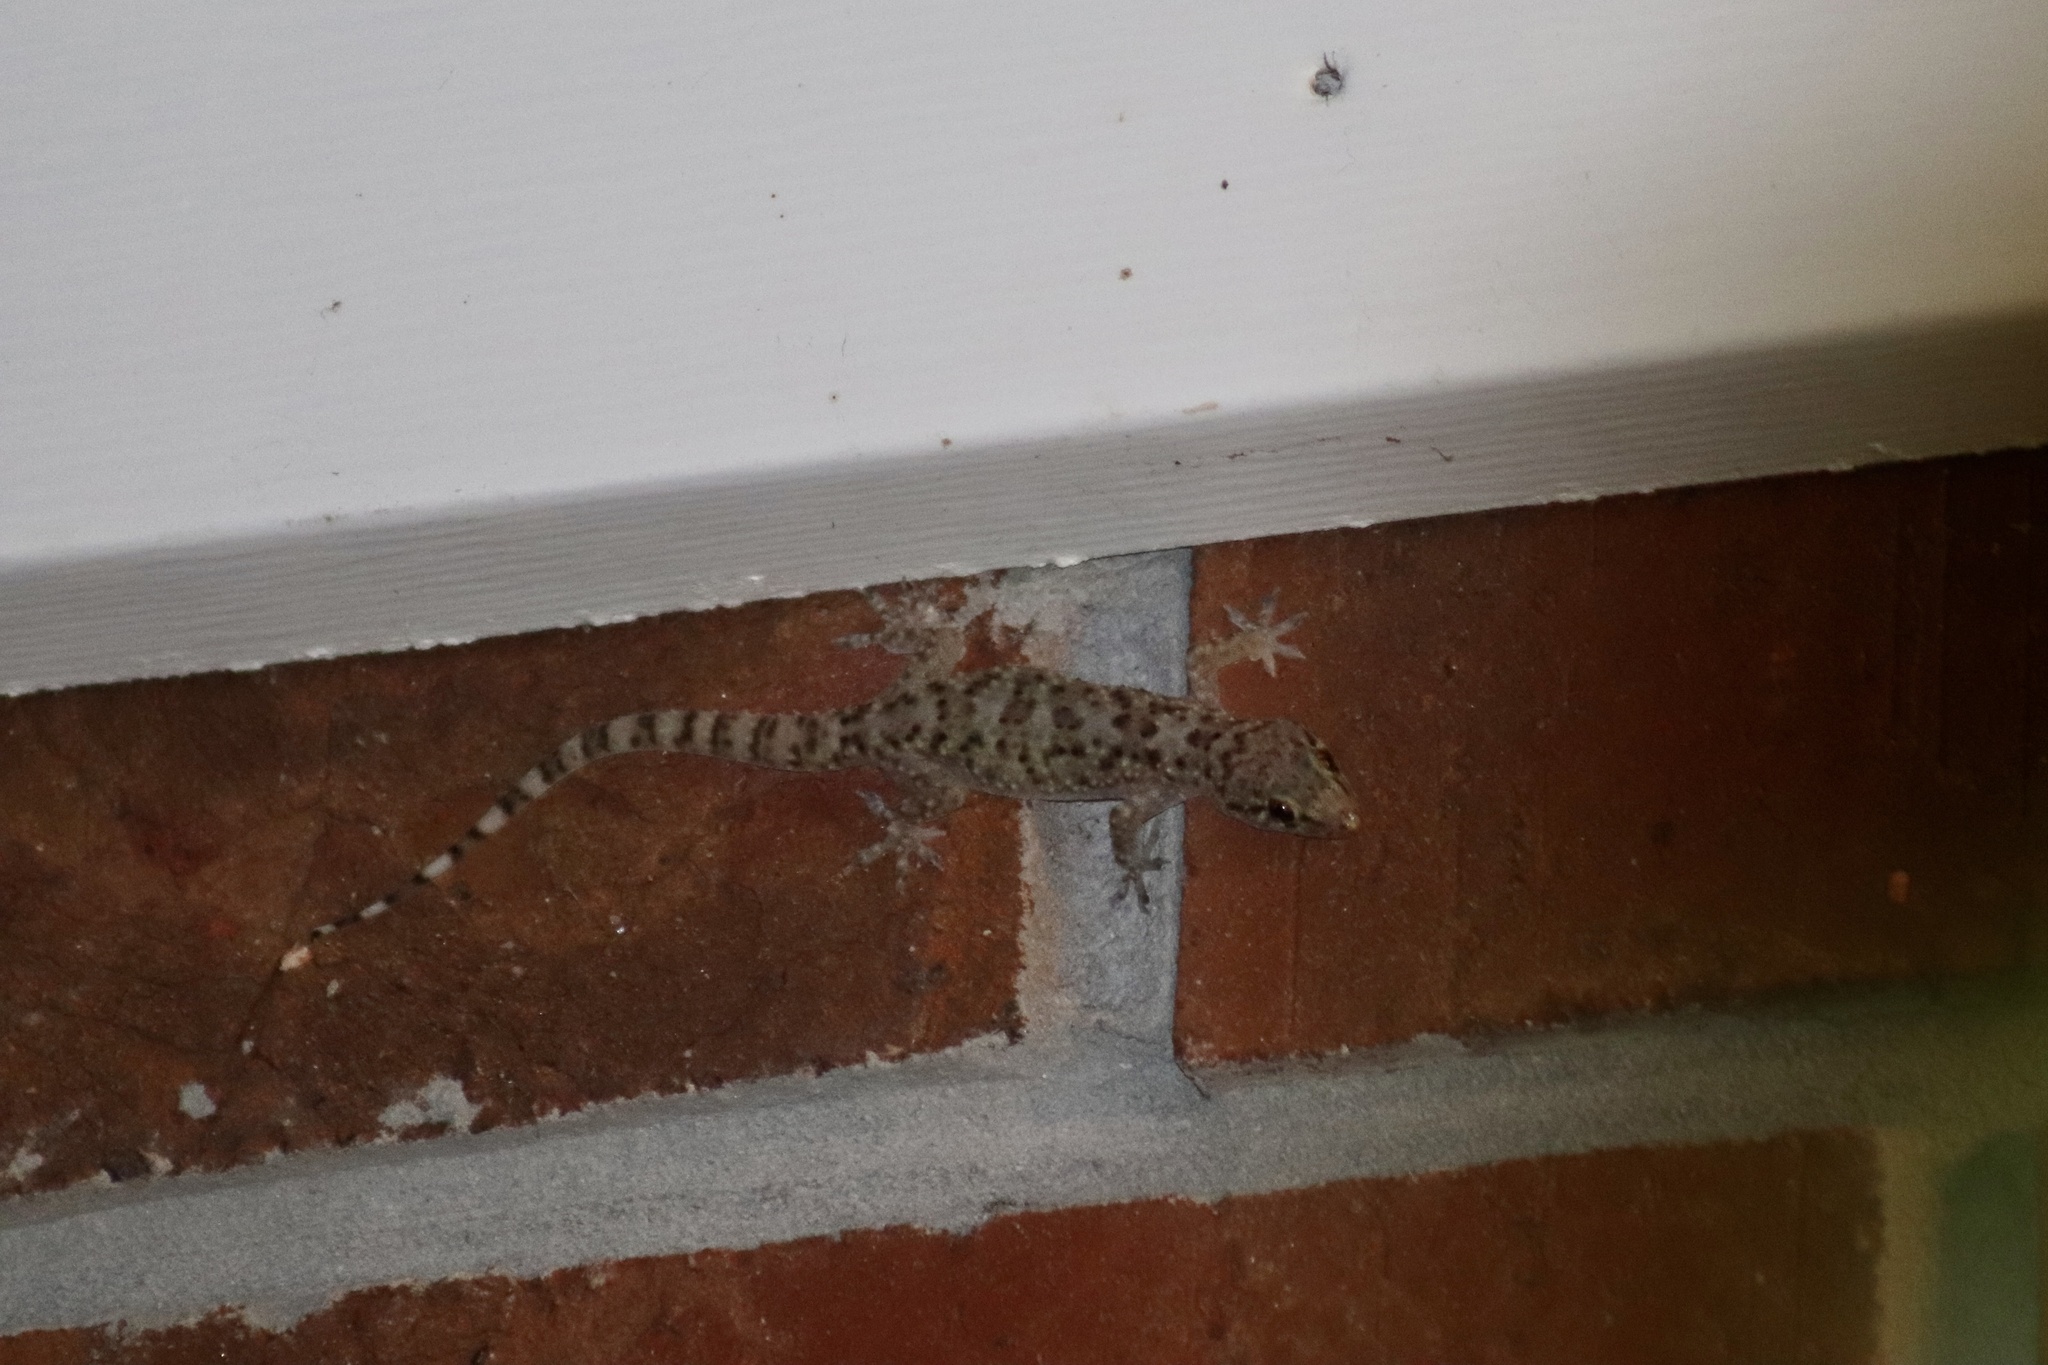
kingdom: Animalia
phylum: Chordata
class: Squamata
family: Gekkonidae
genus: Hemidactylus
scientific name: Hemidactylus turcicus
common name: Turkish gecko
